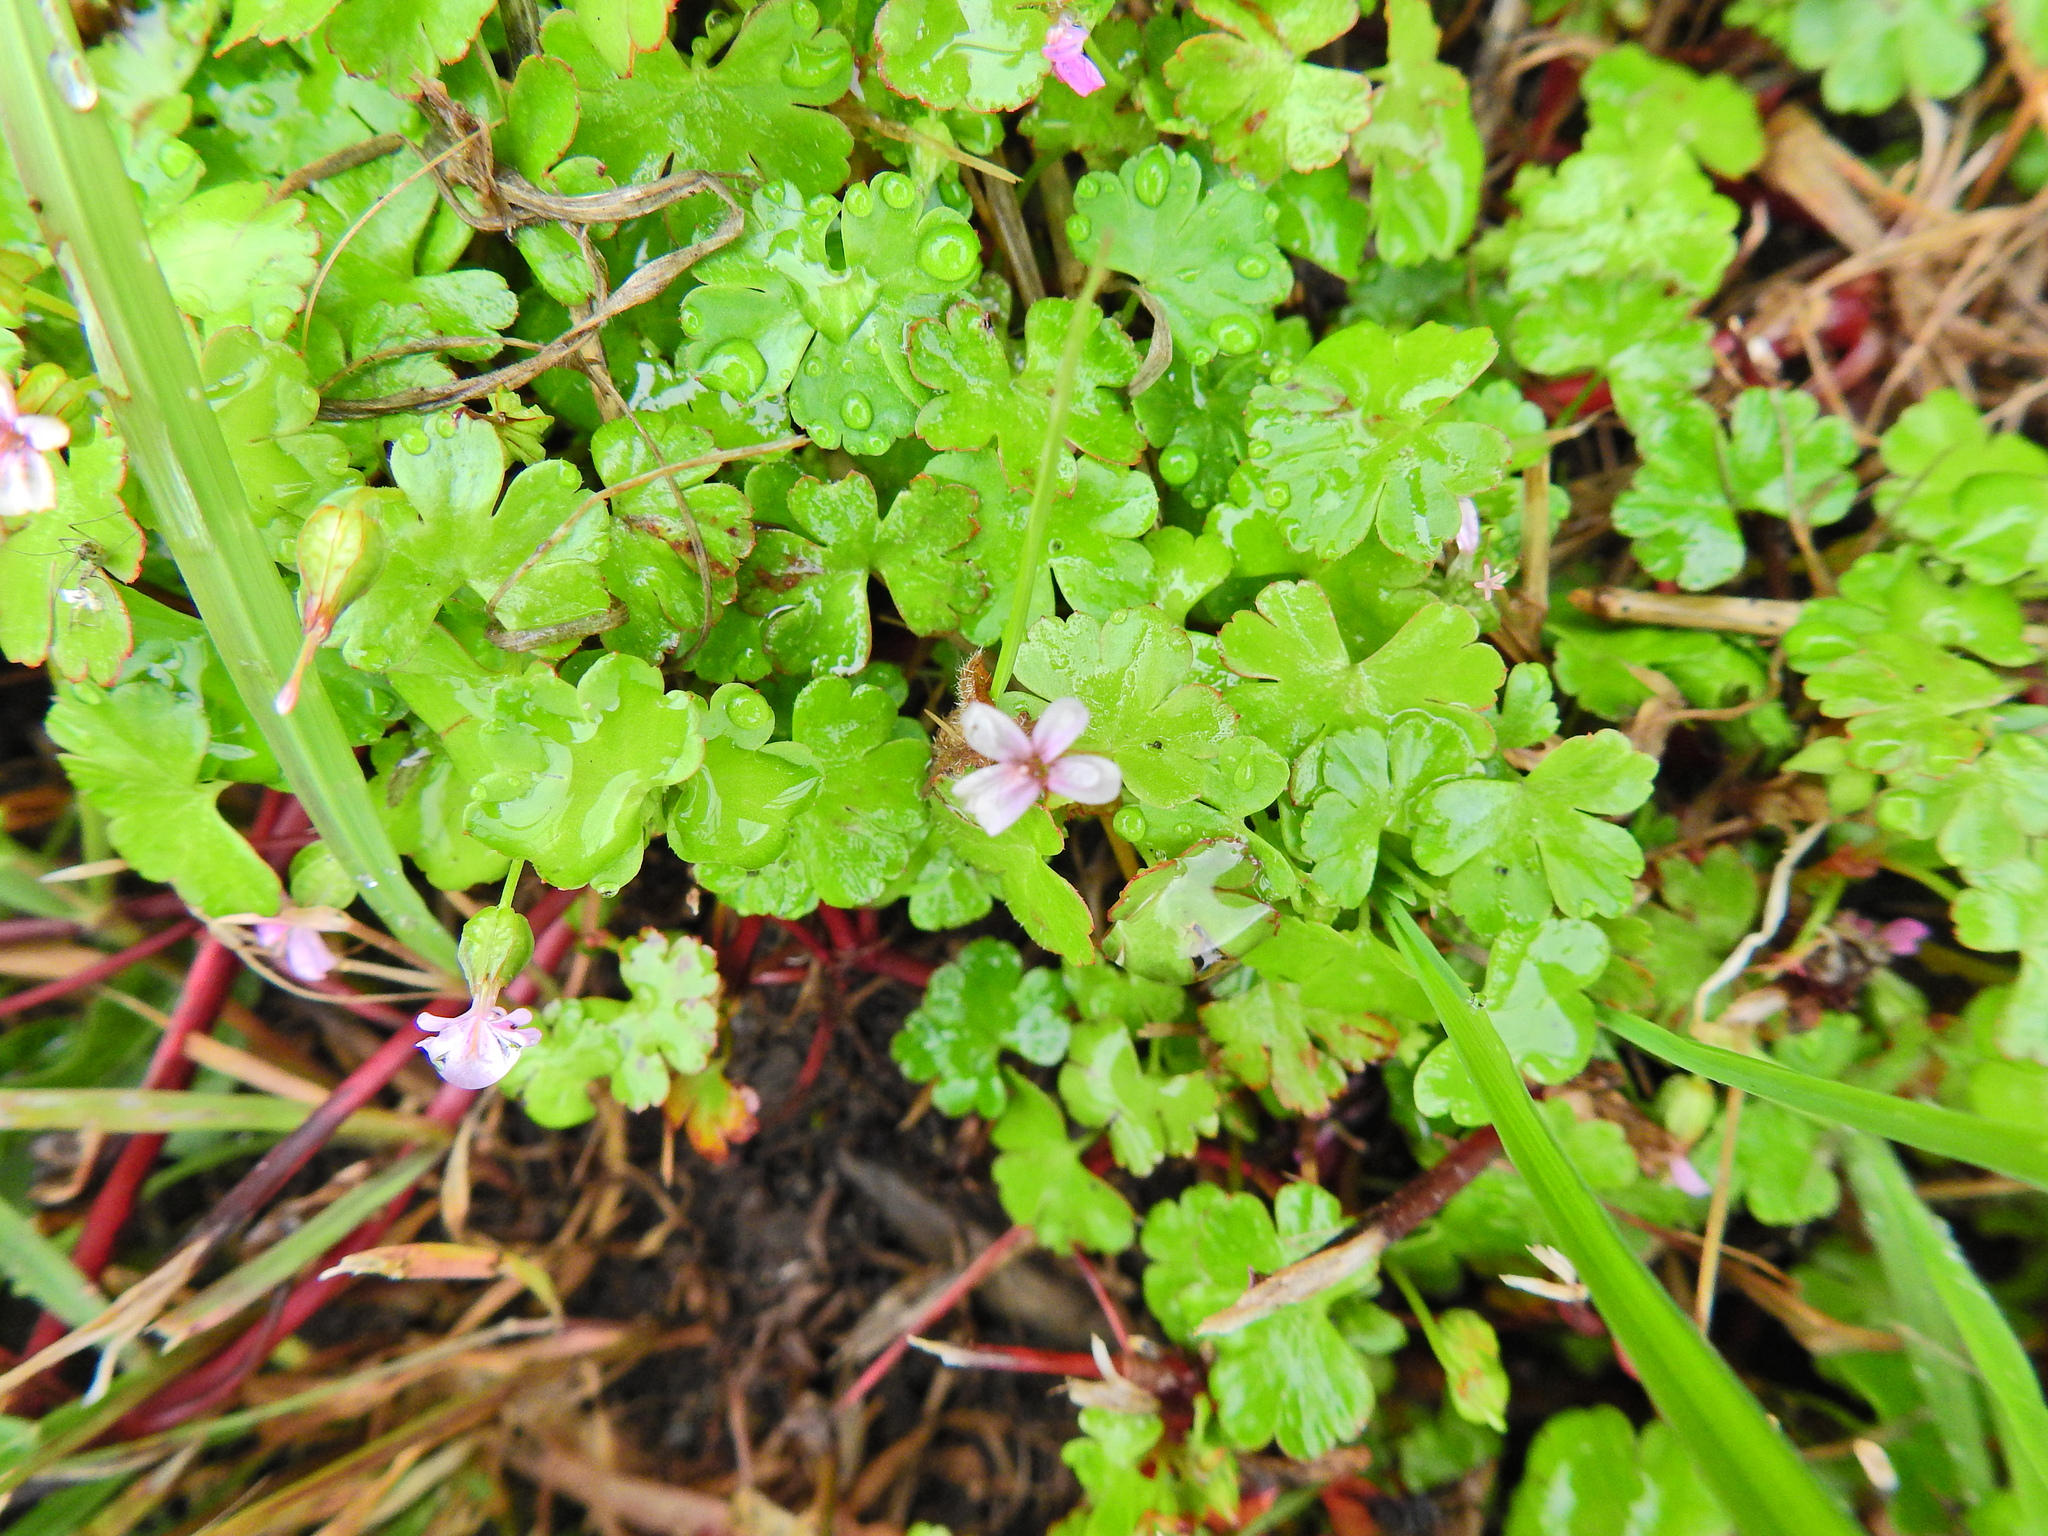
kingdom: Plantae
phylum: Tracheophyta
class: Magnoliopsida
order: Geraniales
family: Geraniaceae
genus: Geranium
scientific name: Geranium lucidum
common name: Shining crane's-bill
